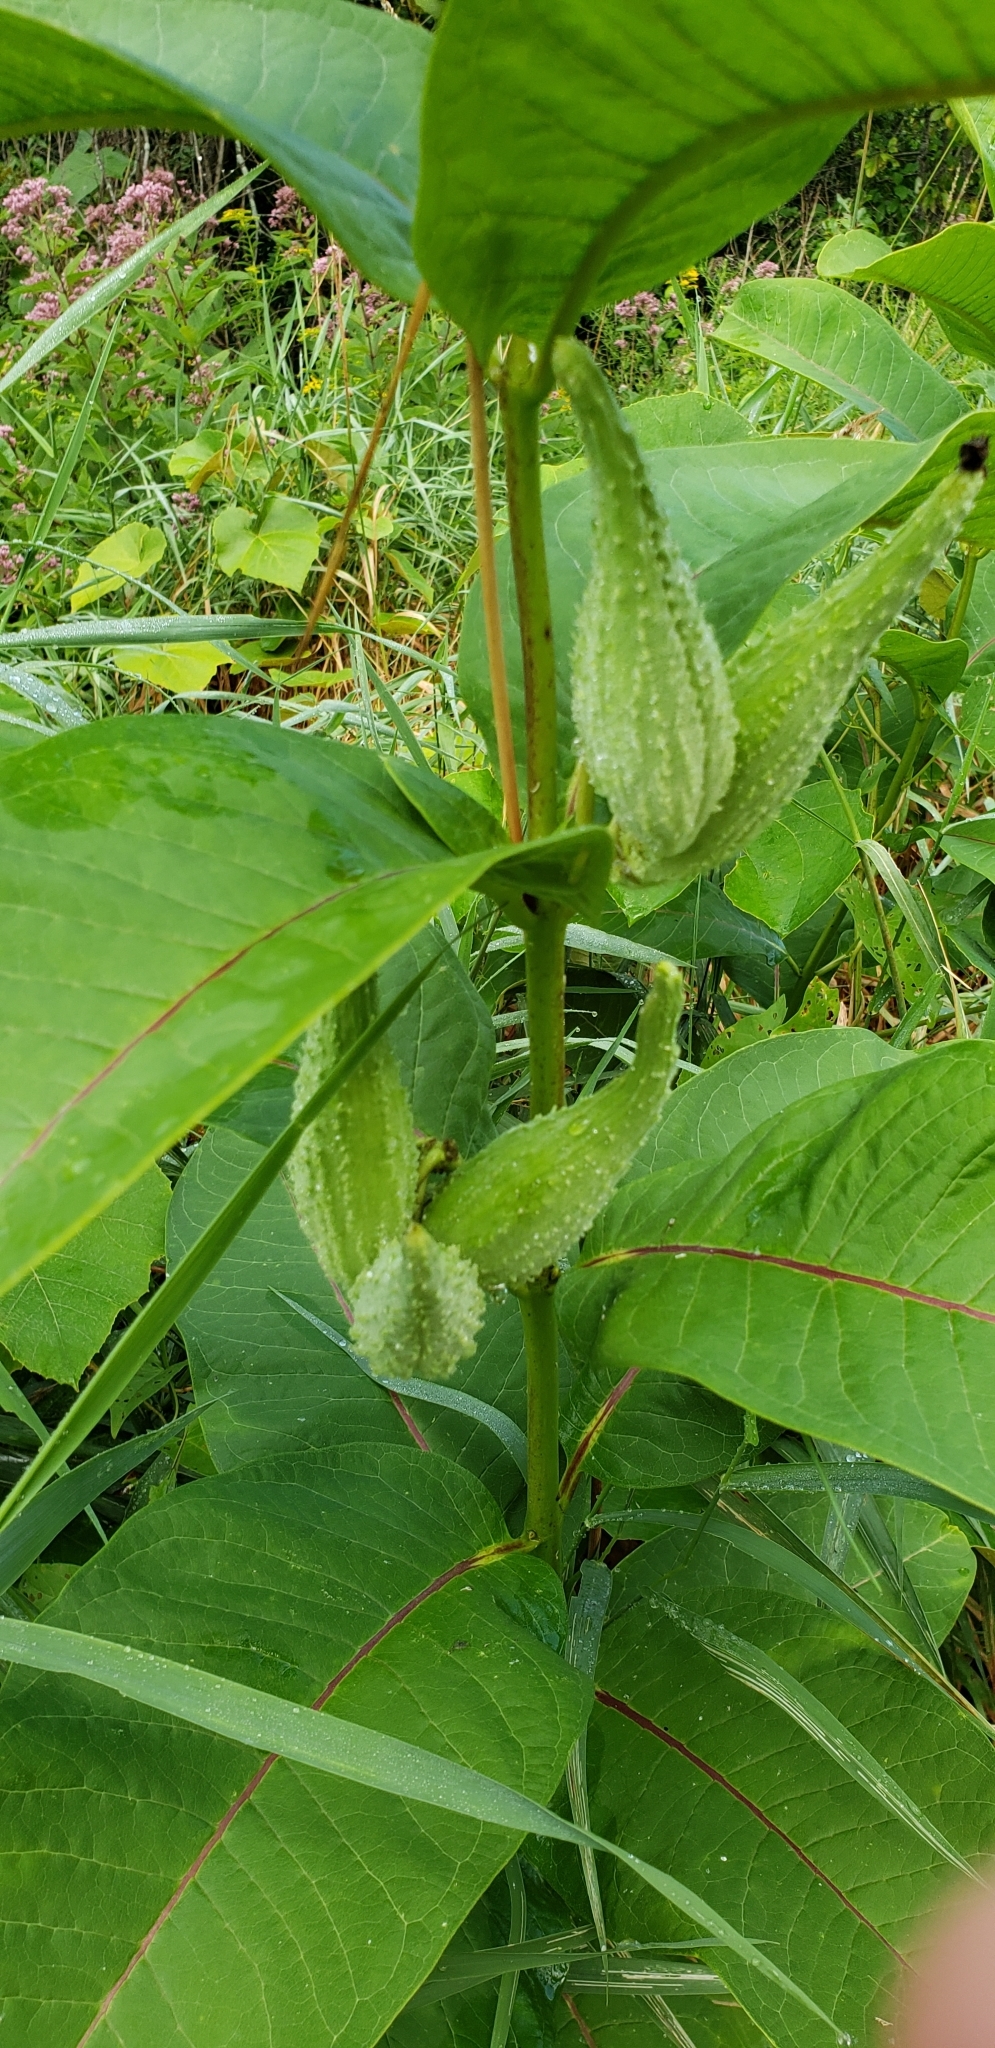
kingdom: Plantae
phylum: Tracheophyta
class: Magnoliopsida
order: Gentianales
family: Apocynaceae
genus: Asclepias
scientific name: Asclepias syriaca
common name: Common milkweed
